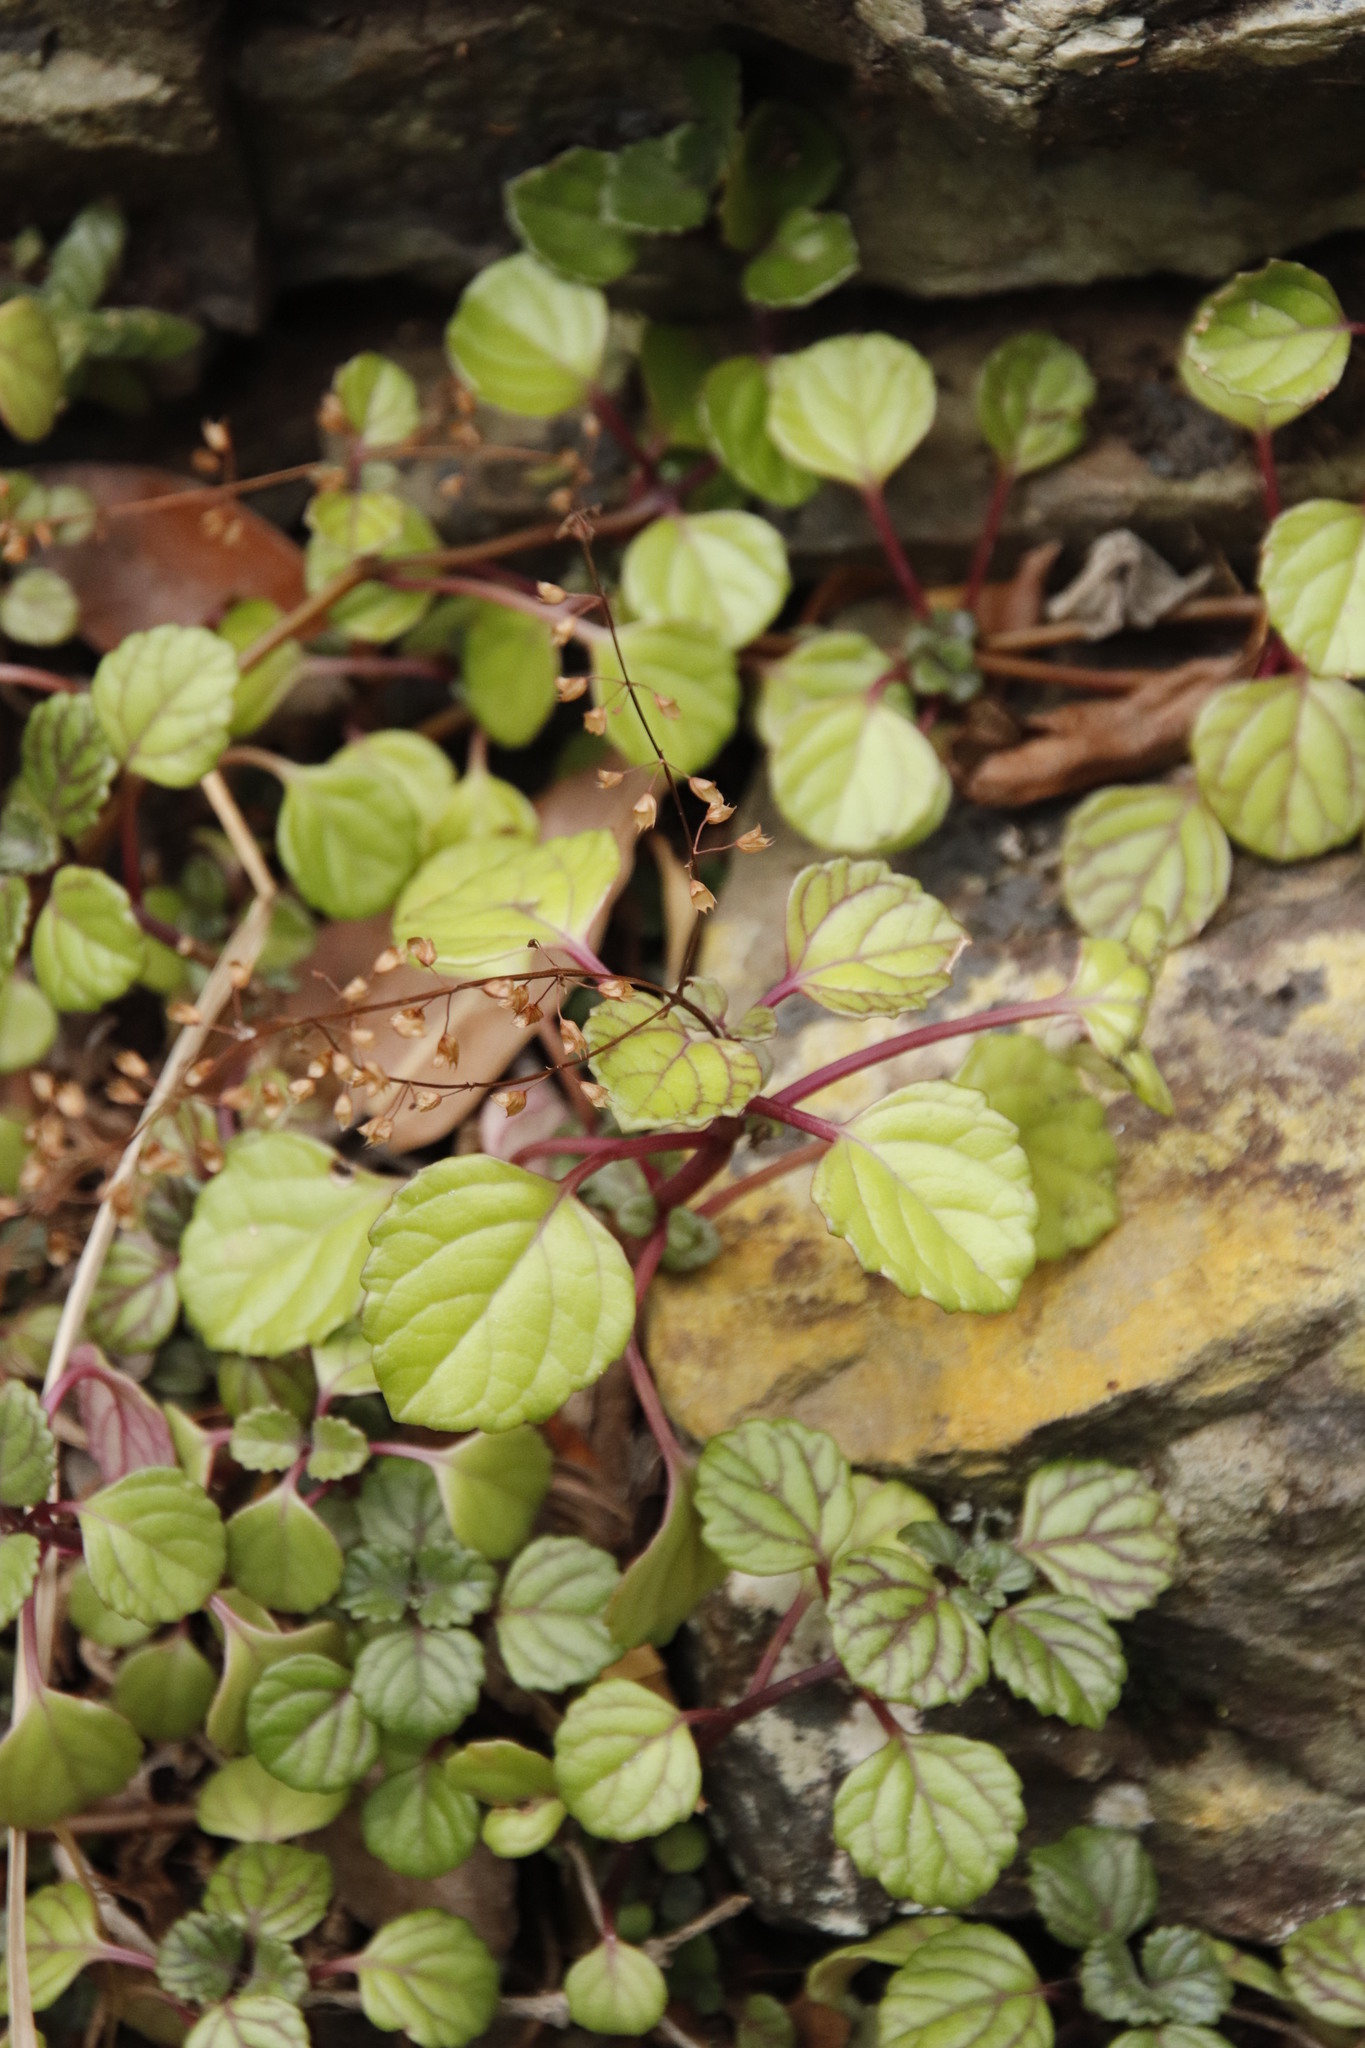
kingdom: Plantae
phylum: Tracheophyta
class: Magnoliopsida
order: Lamiales
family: Lamiaceae
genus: Plectranthus
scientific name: Plectranthus verticillatus
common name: Whorled plectranthus
